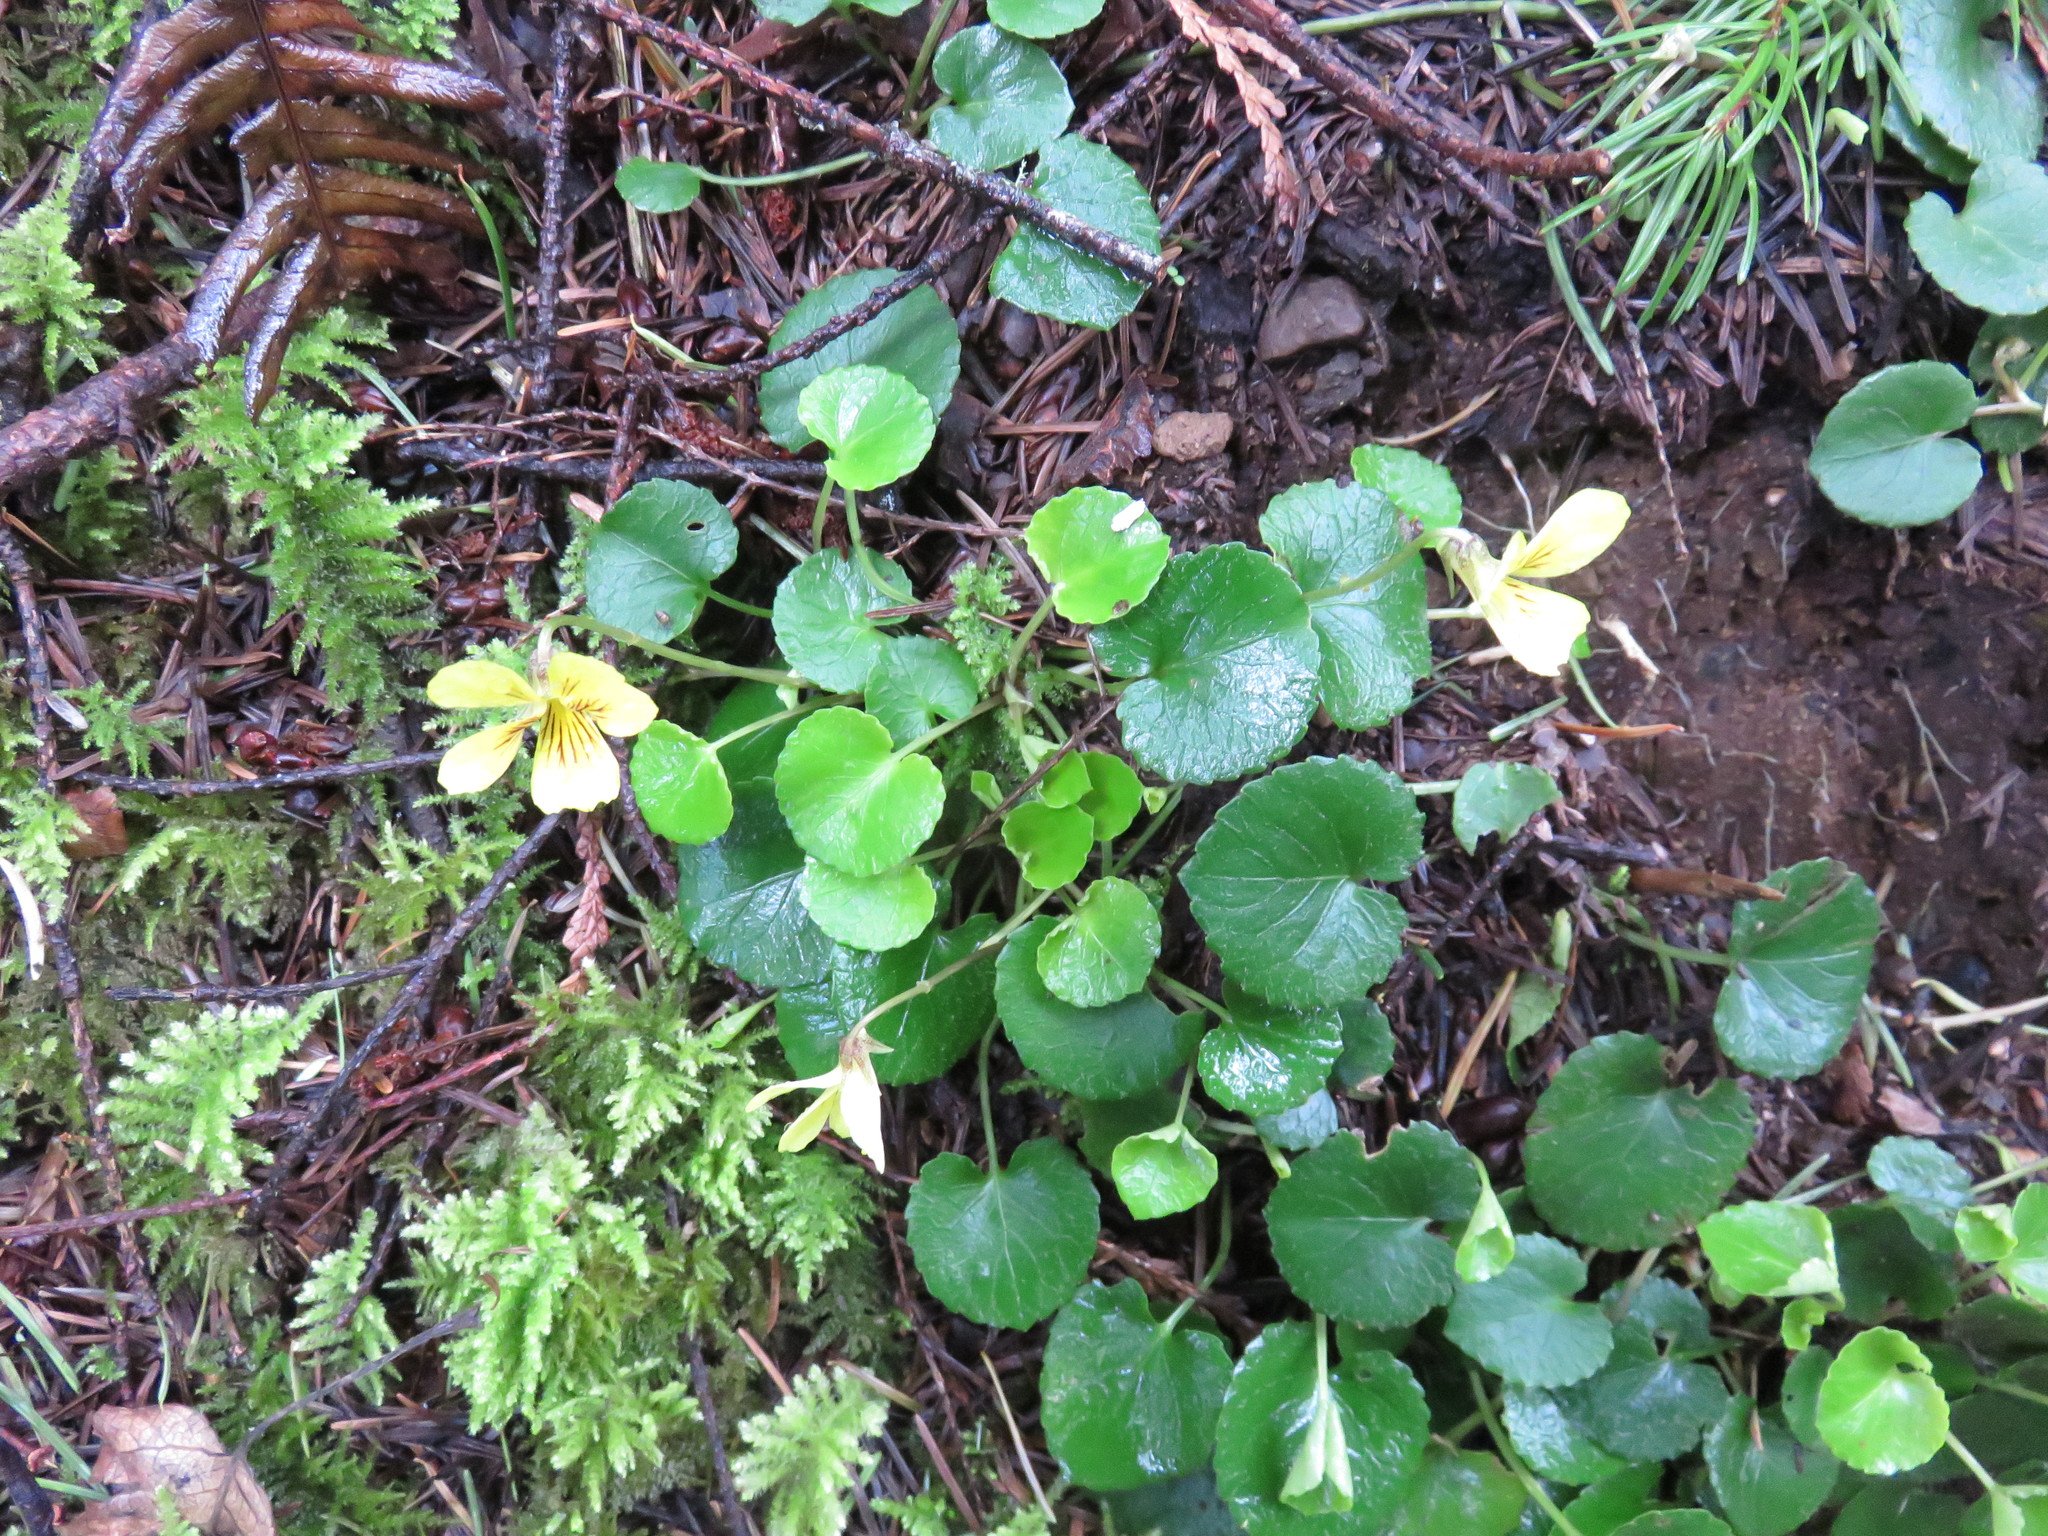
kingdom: Plantae
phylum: Tracheophyta
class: Magnoliopsida
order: Malpighiales
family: Violaceae
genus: Viola
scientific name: Viola sempervirens
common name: Evergreen violet
